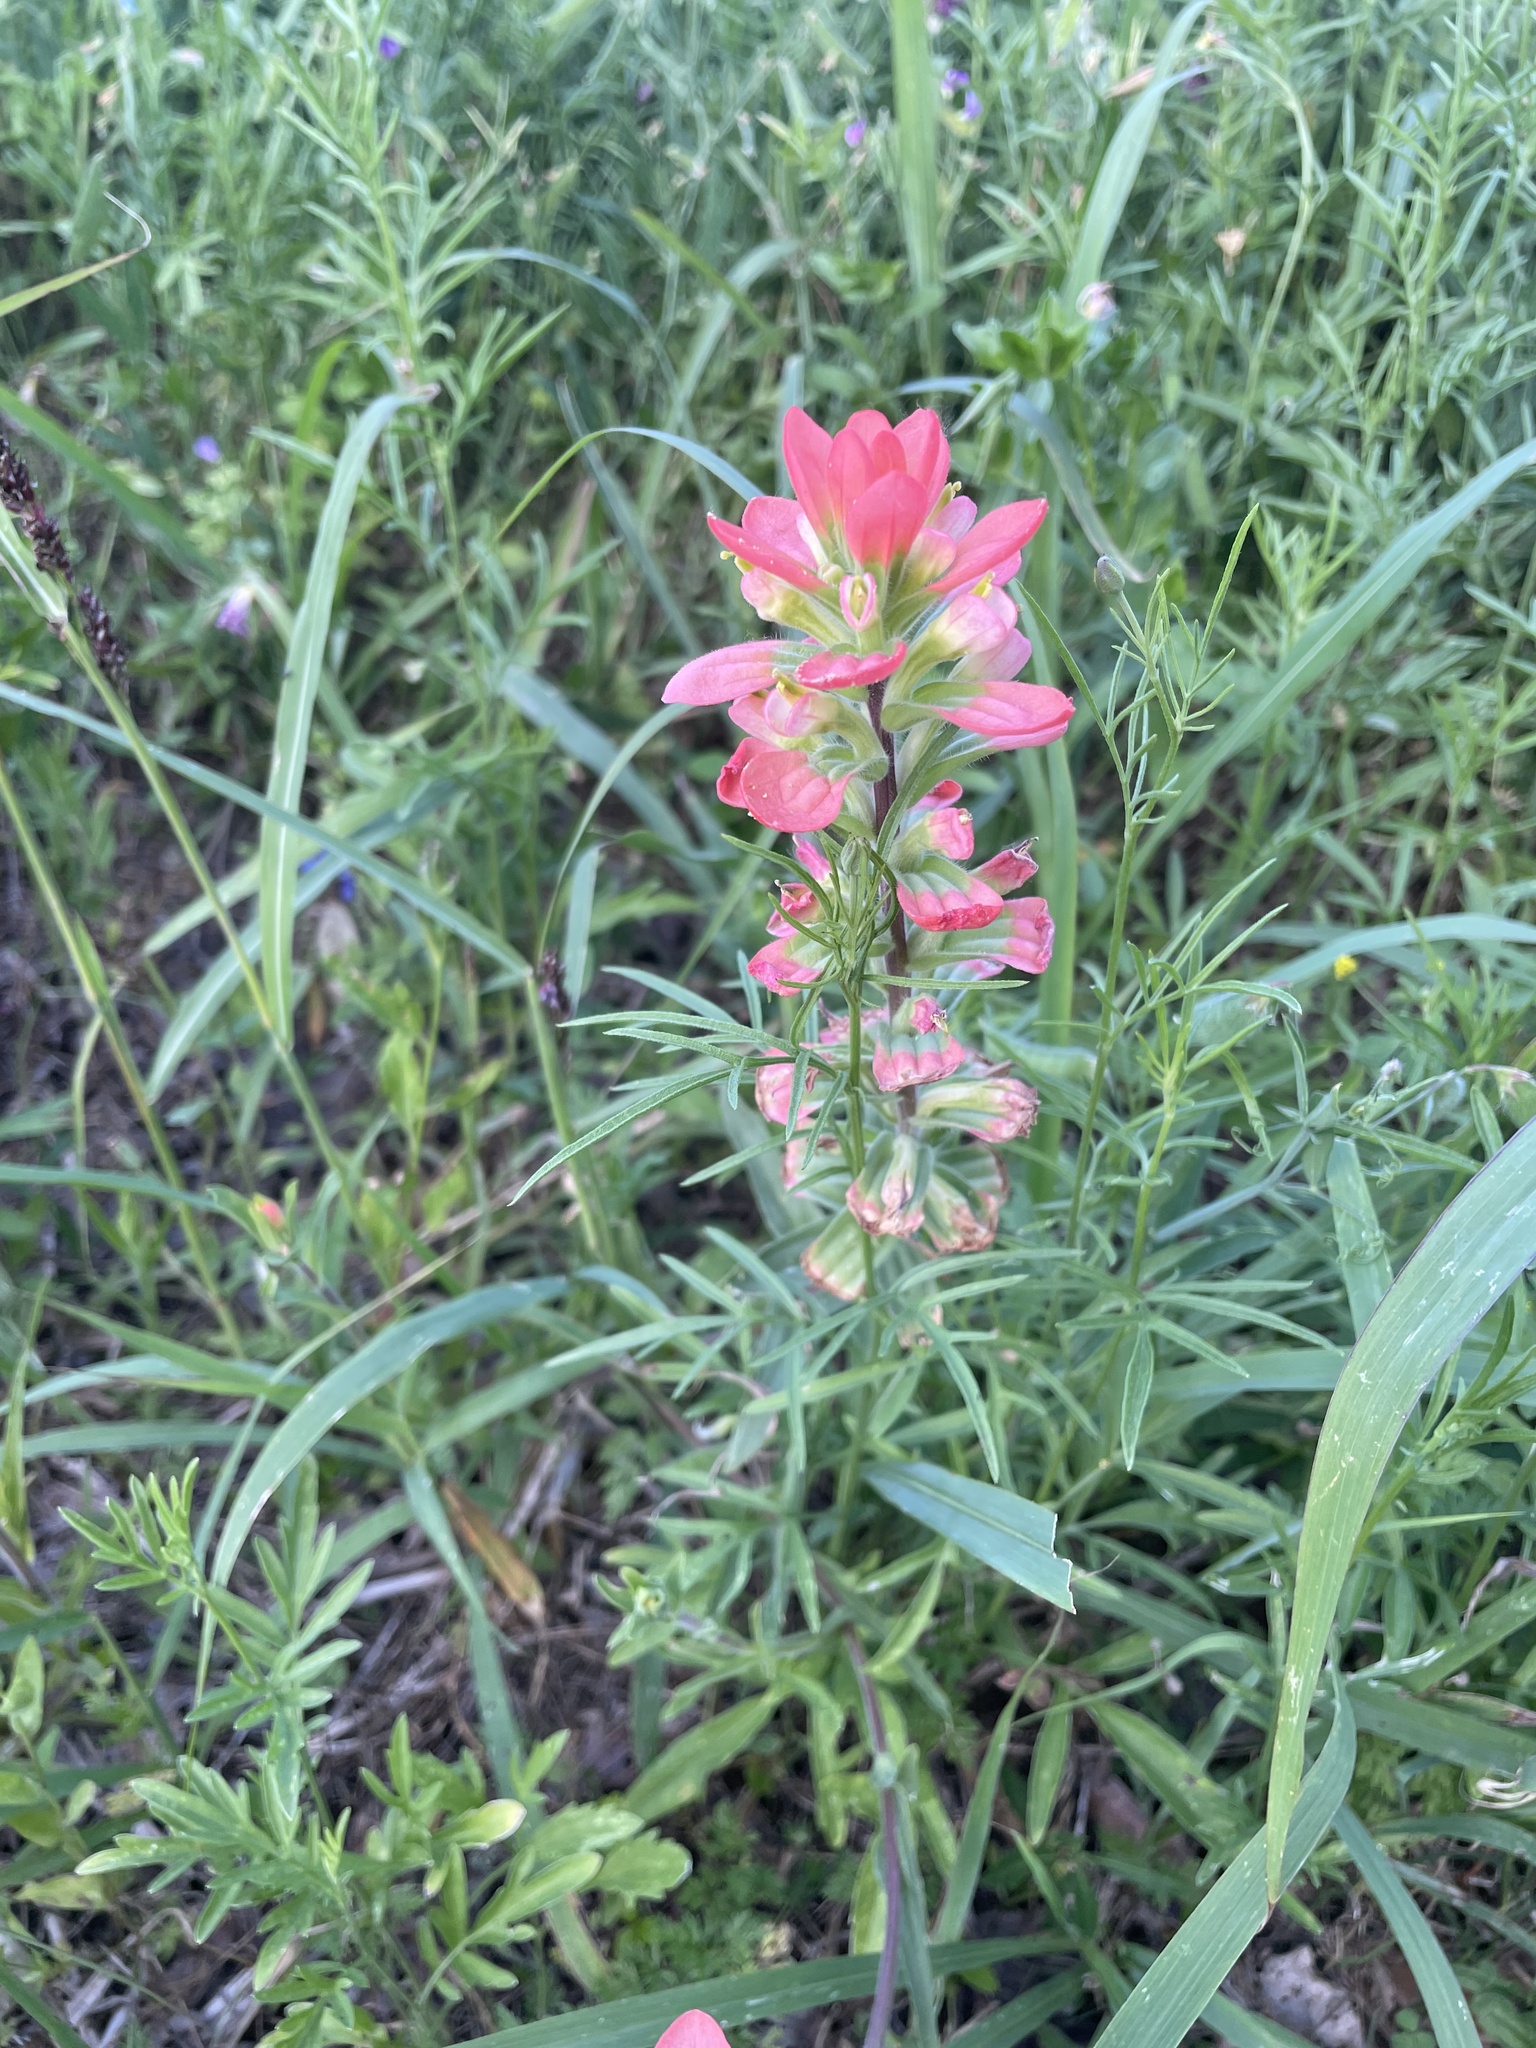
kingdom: Plantae
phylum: Tracheophyta
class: Magnoliopsida
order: Lamiales
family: Orobanchaceae
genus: Castilleja
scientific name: Castilleja indivisa
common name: Texas paintbrush
